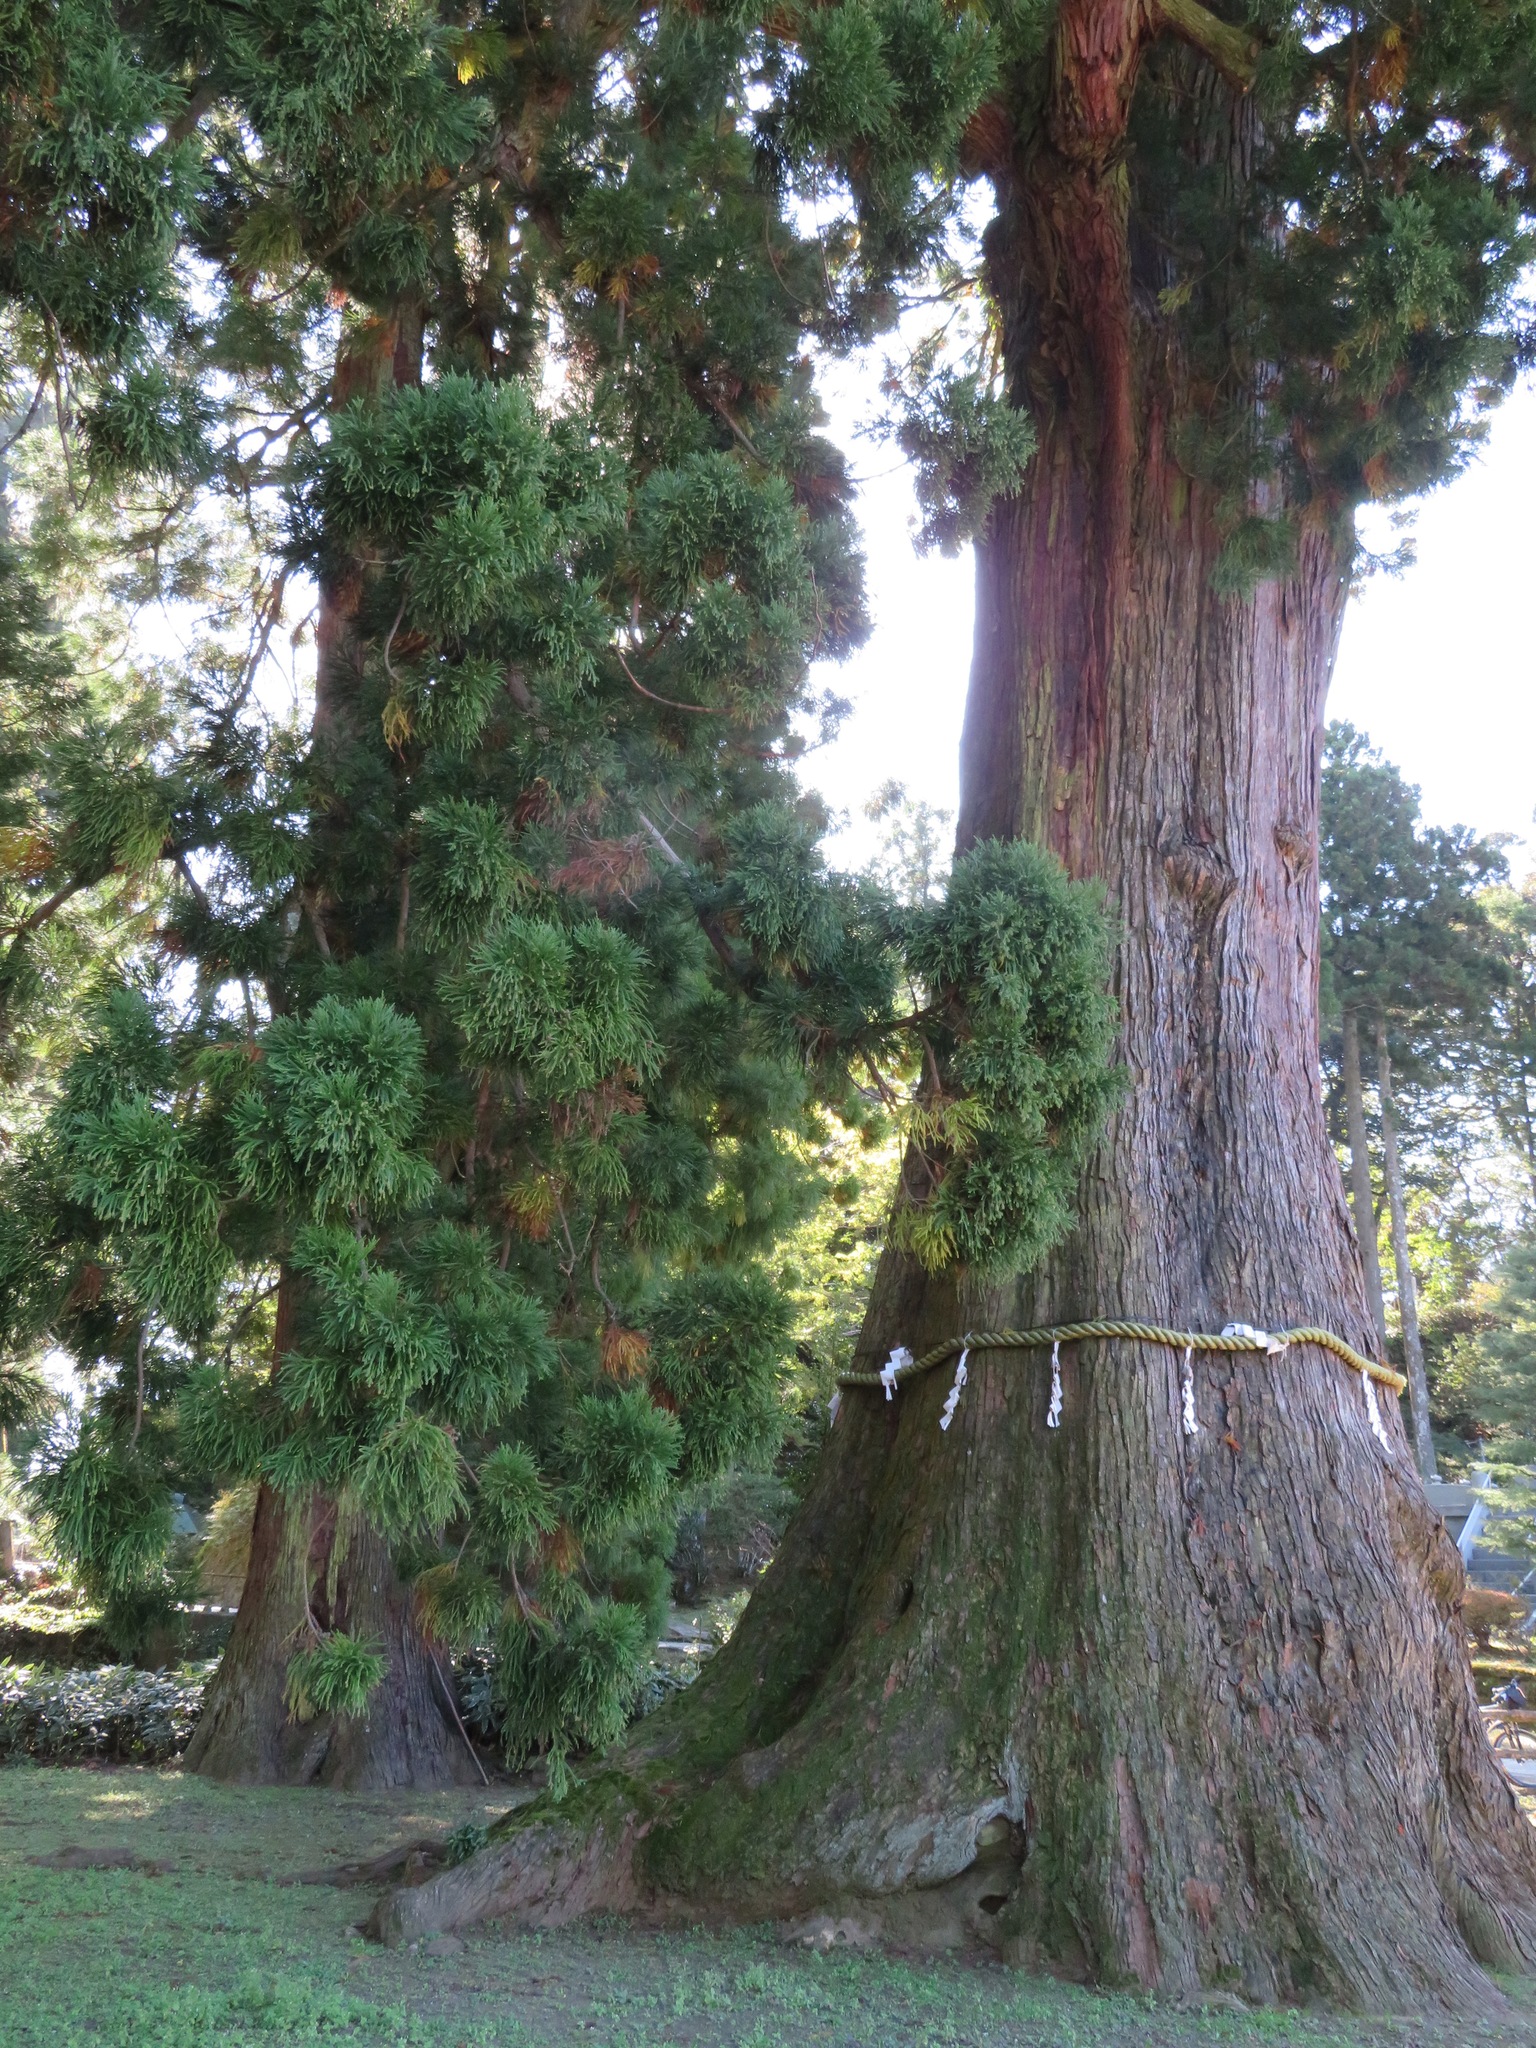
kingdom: Plantae
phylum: Tracheophyta
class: Pinopsida
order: Pinales
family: Cupressaceae
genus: Cryptomeria
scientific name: Cryptomeria japonica
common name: Japanese cedar
